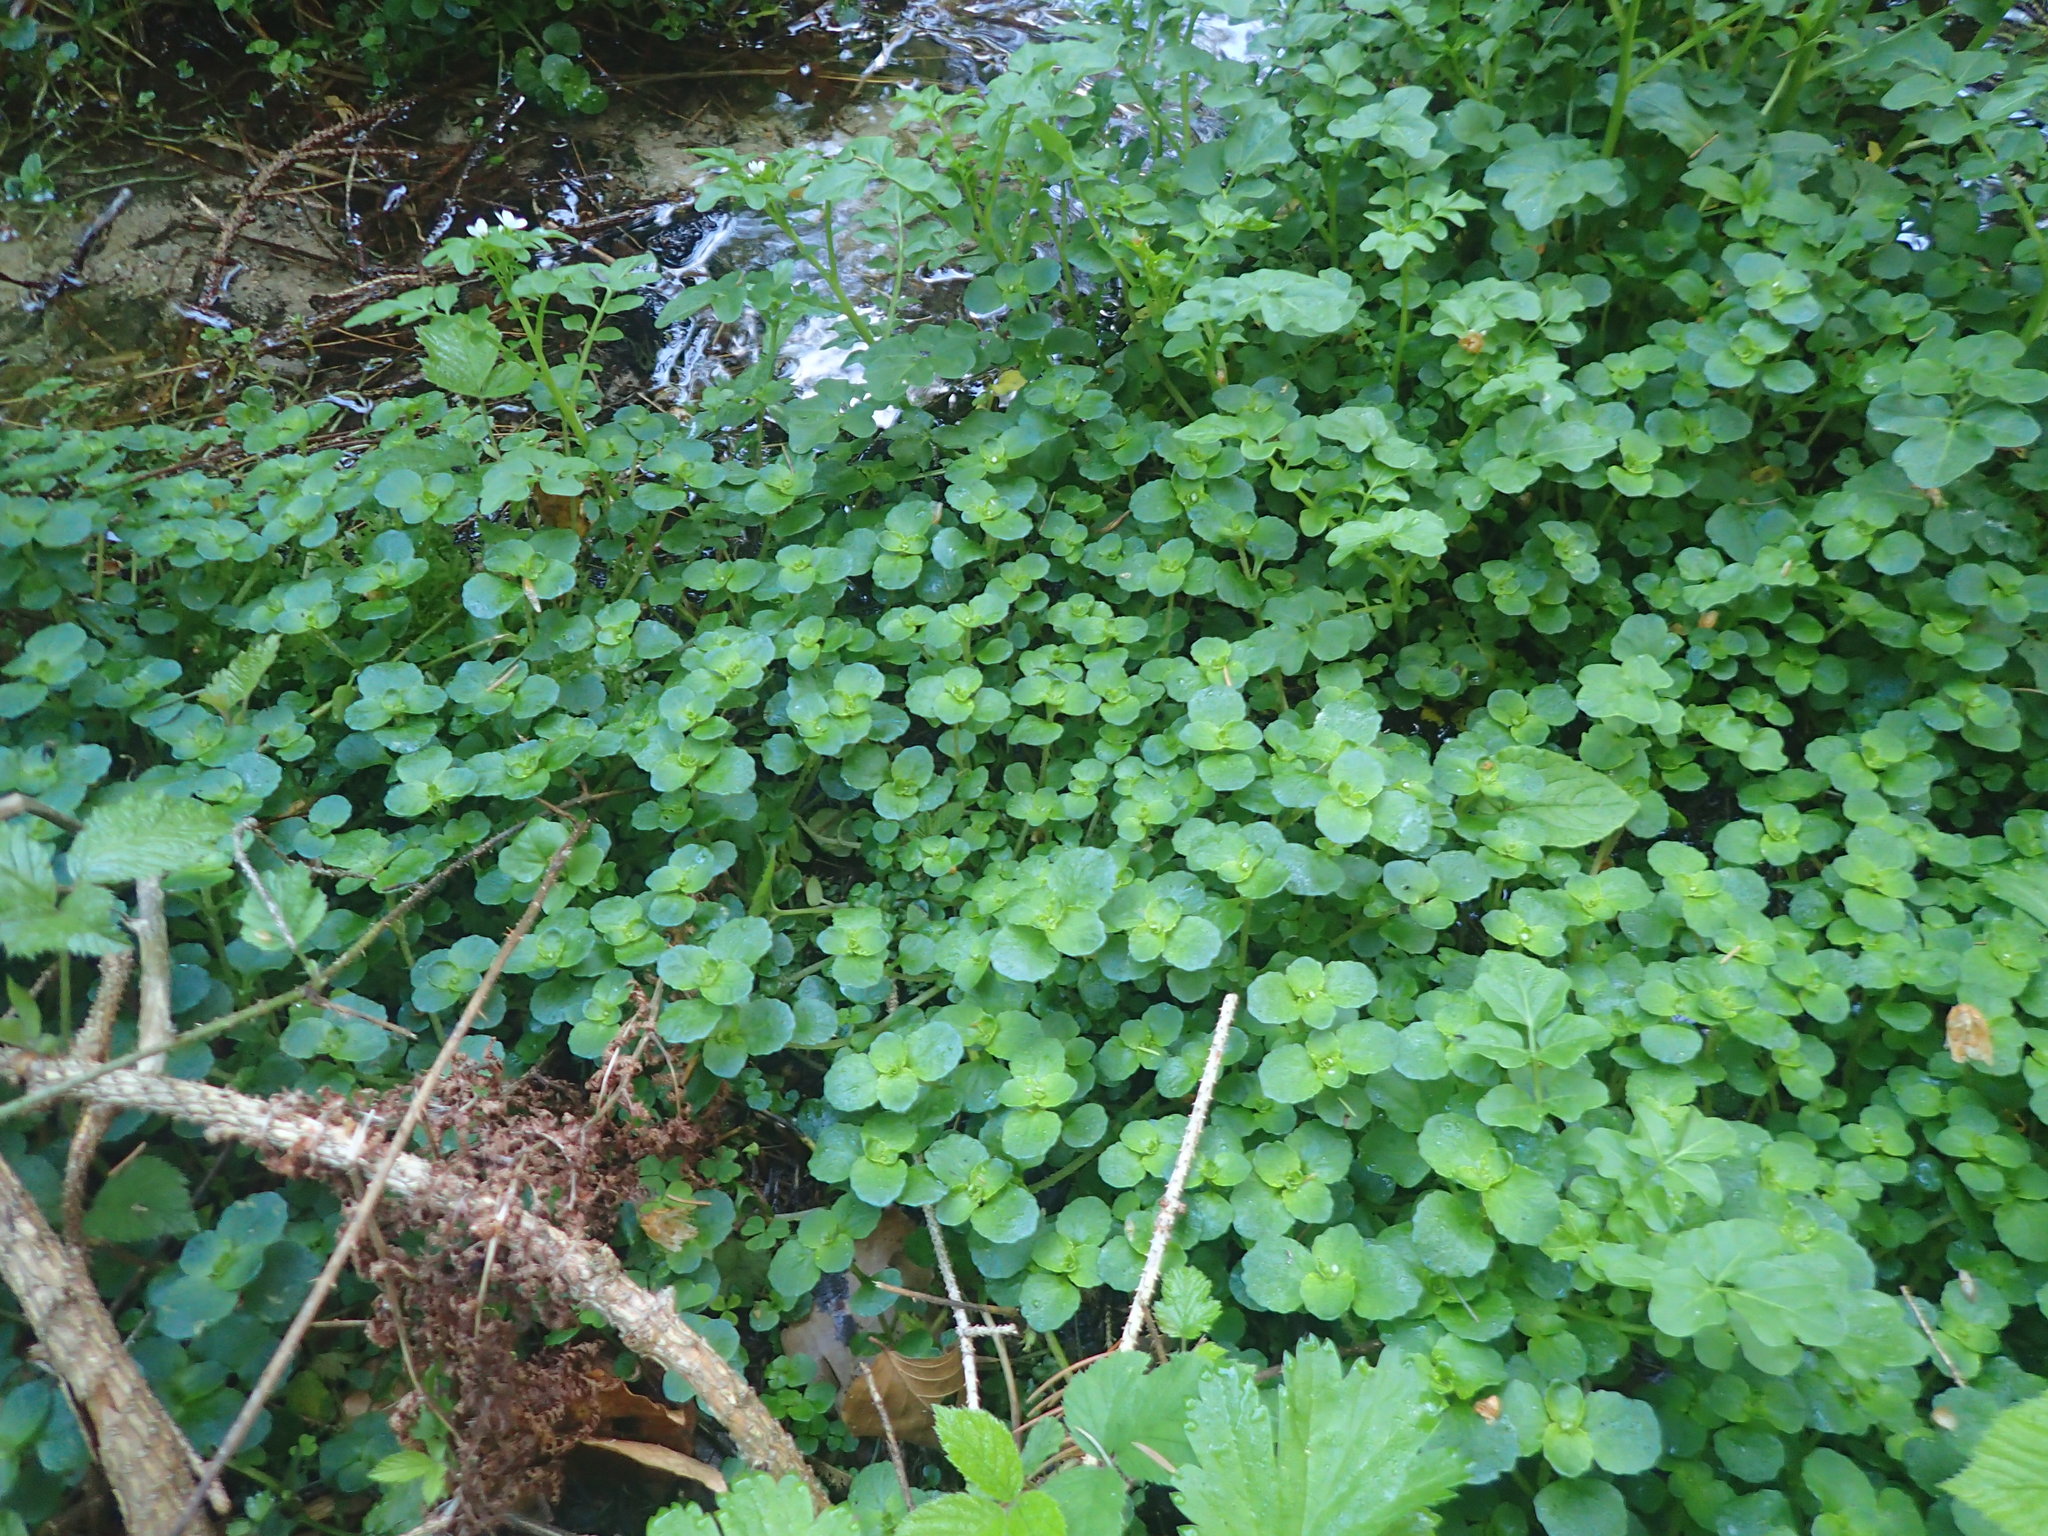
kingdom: Plantae
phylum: Tracheophyta
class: Magnoliopsida
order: Saxifragales
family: Saxifragaceae
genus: Chrysosplenium
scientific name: Chrysosplenium oppositifolium
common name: Opposite-leaved golden-saxifrage
